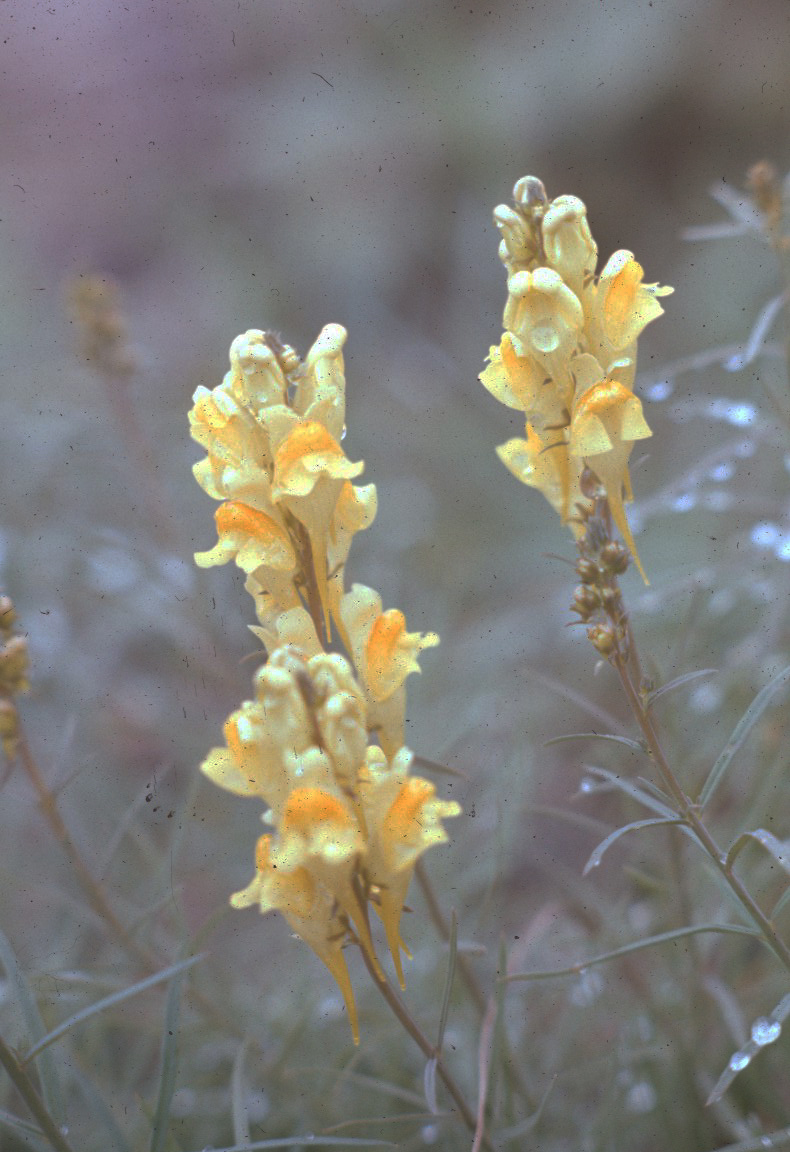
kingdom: Plantae
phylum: Tracheophyta
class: Magnoliopsida
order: Lamiales
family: Plantaginaceae
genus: Linaria
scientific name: Linaria vulgaris
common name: Butter and eggs
